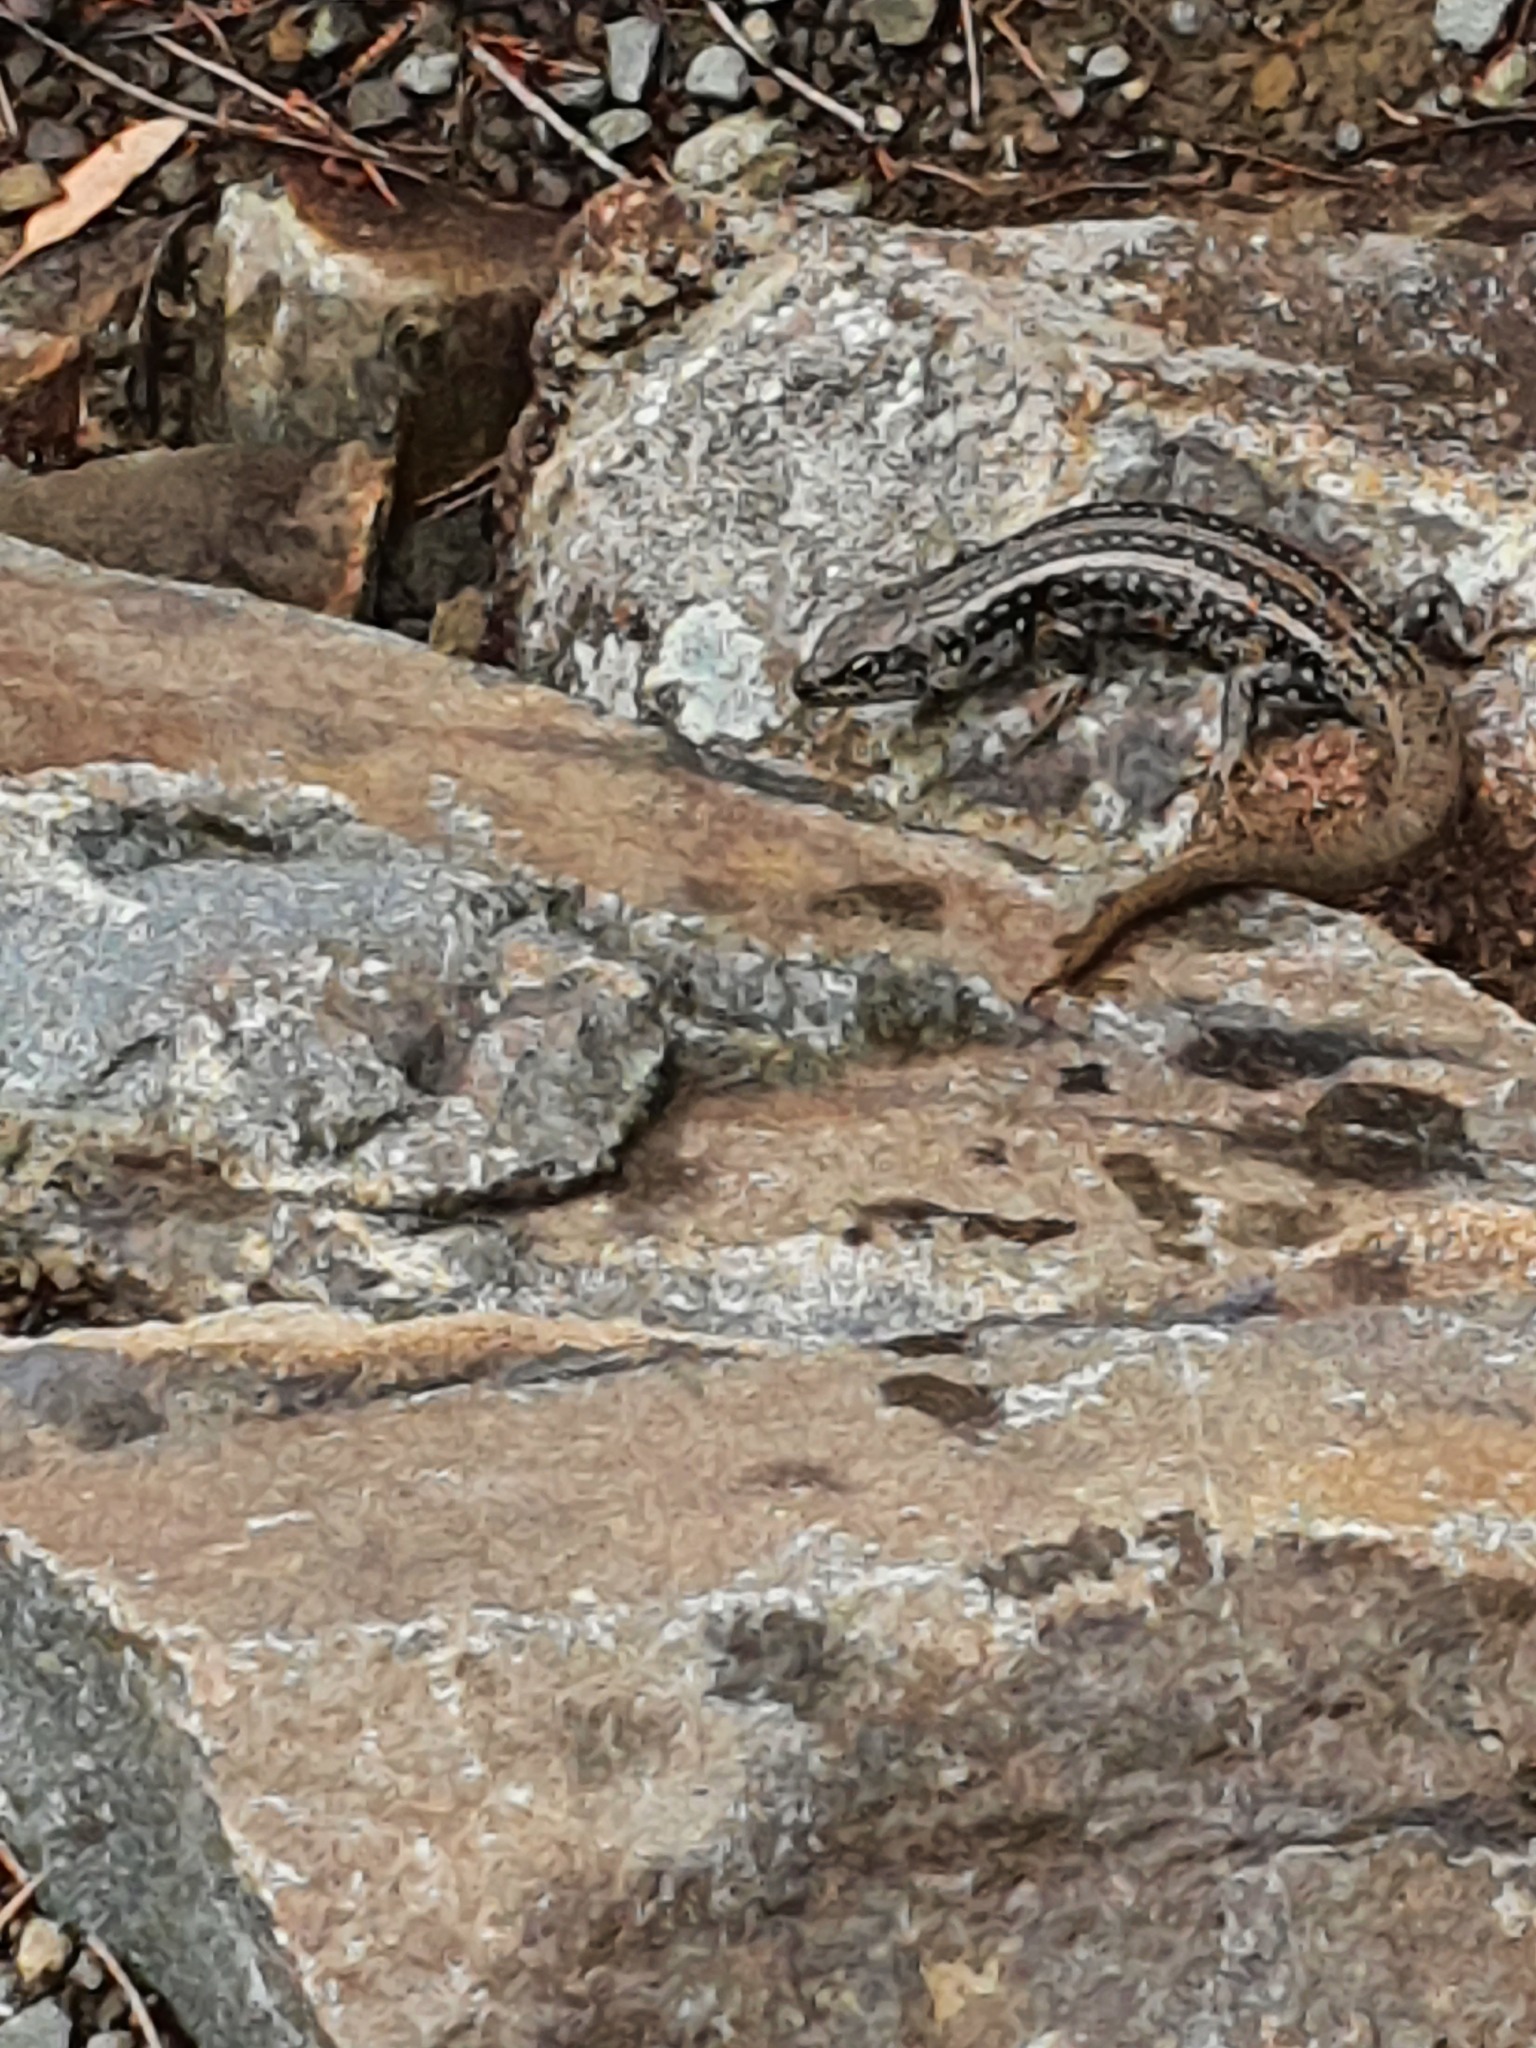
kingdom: Animalia
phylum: Chordata
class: Squamata
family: Scincidae
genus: Liopholis
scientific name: Liopholis whitii
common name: White's rock-skink
